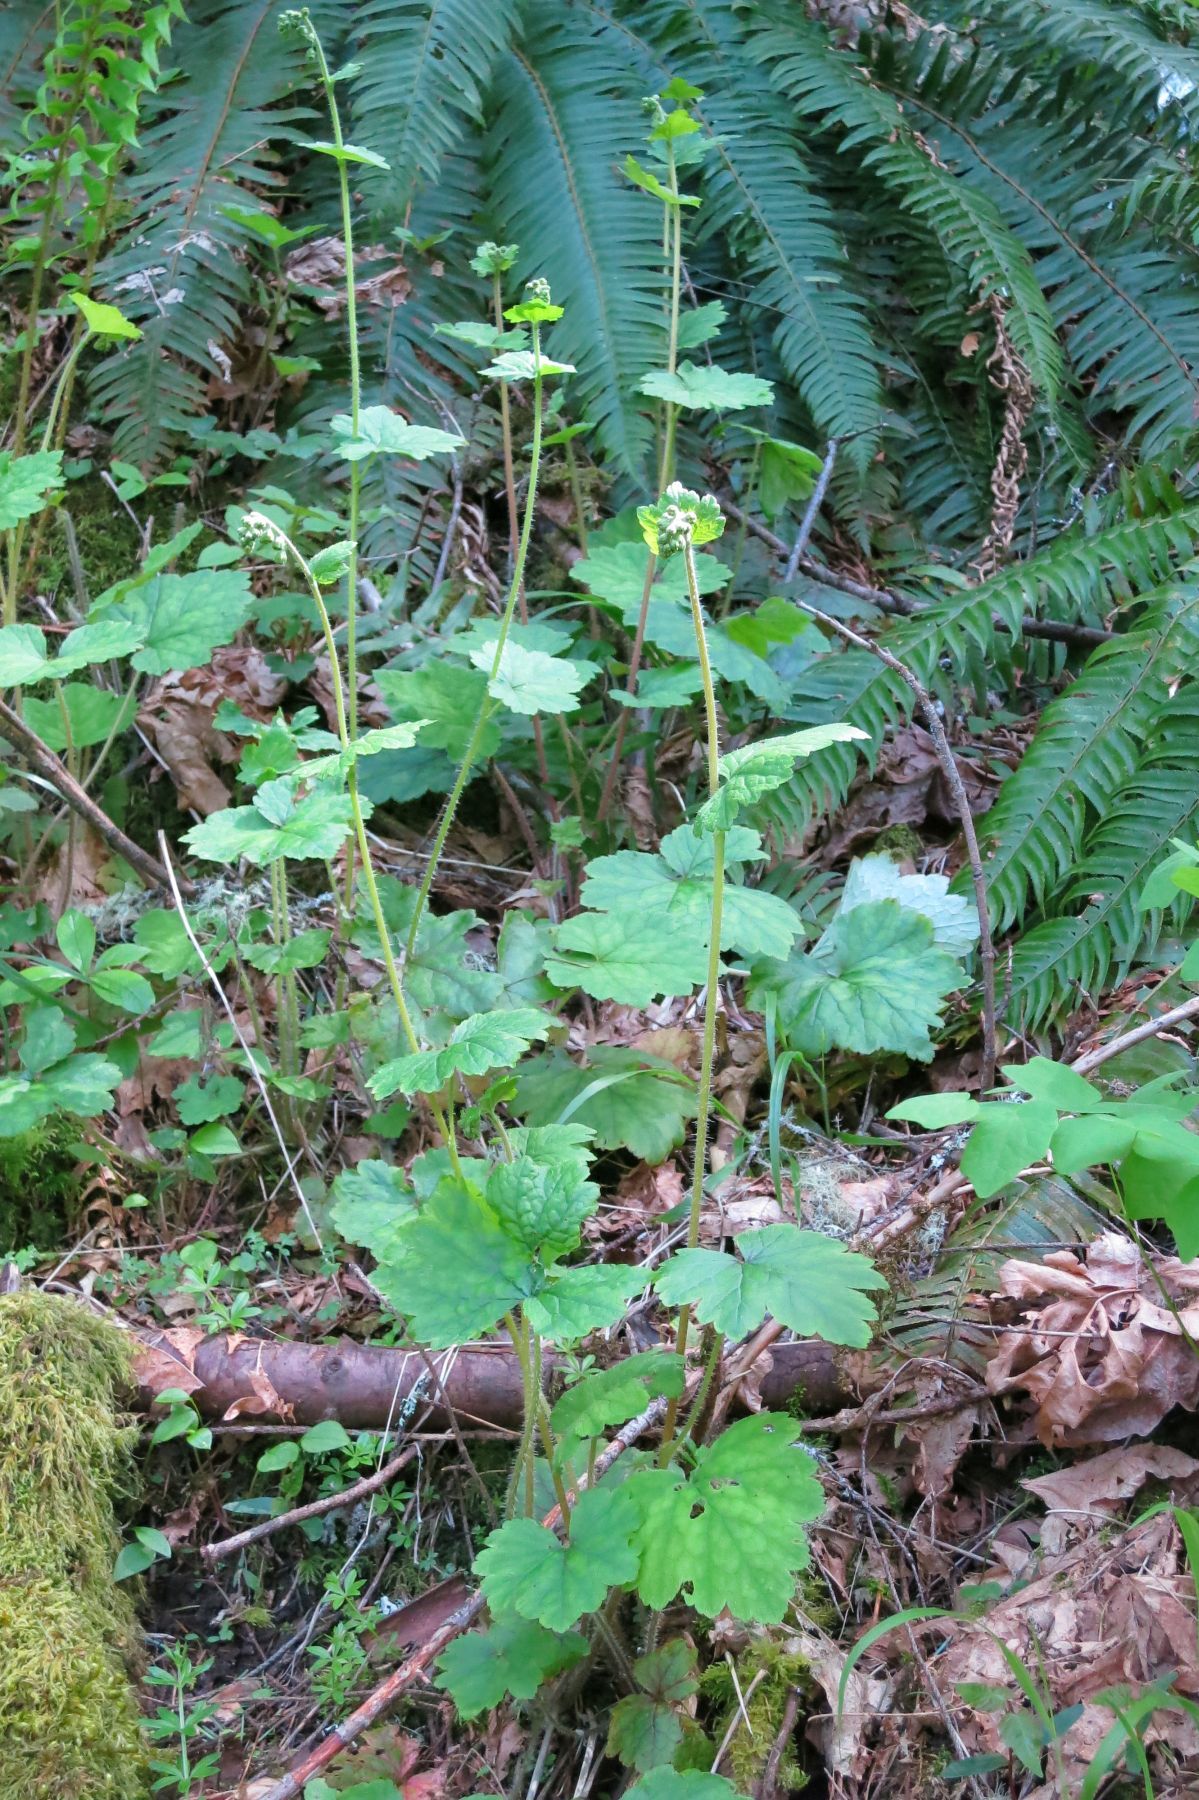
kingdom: Plantae
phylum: Tracheophyta
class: Magnoliopsida
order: Saxifragales
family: Saxifragaceae
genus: Tellima
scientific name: Tellima grandiflora
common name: Fringecups
